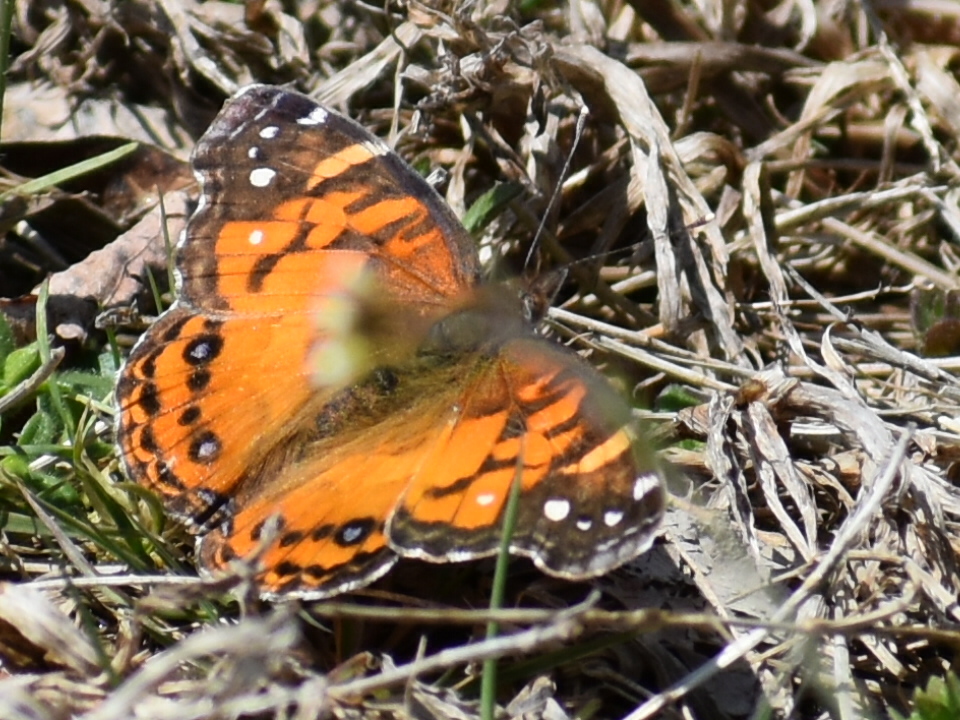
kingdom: Animalia
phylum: Arthropoda
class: Insecta
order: Lepidoptera
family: Nymphalidae
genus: Vanessa
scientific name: Vanessa virginiensis
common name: American lady
